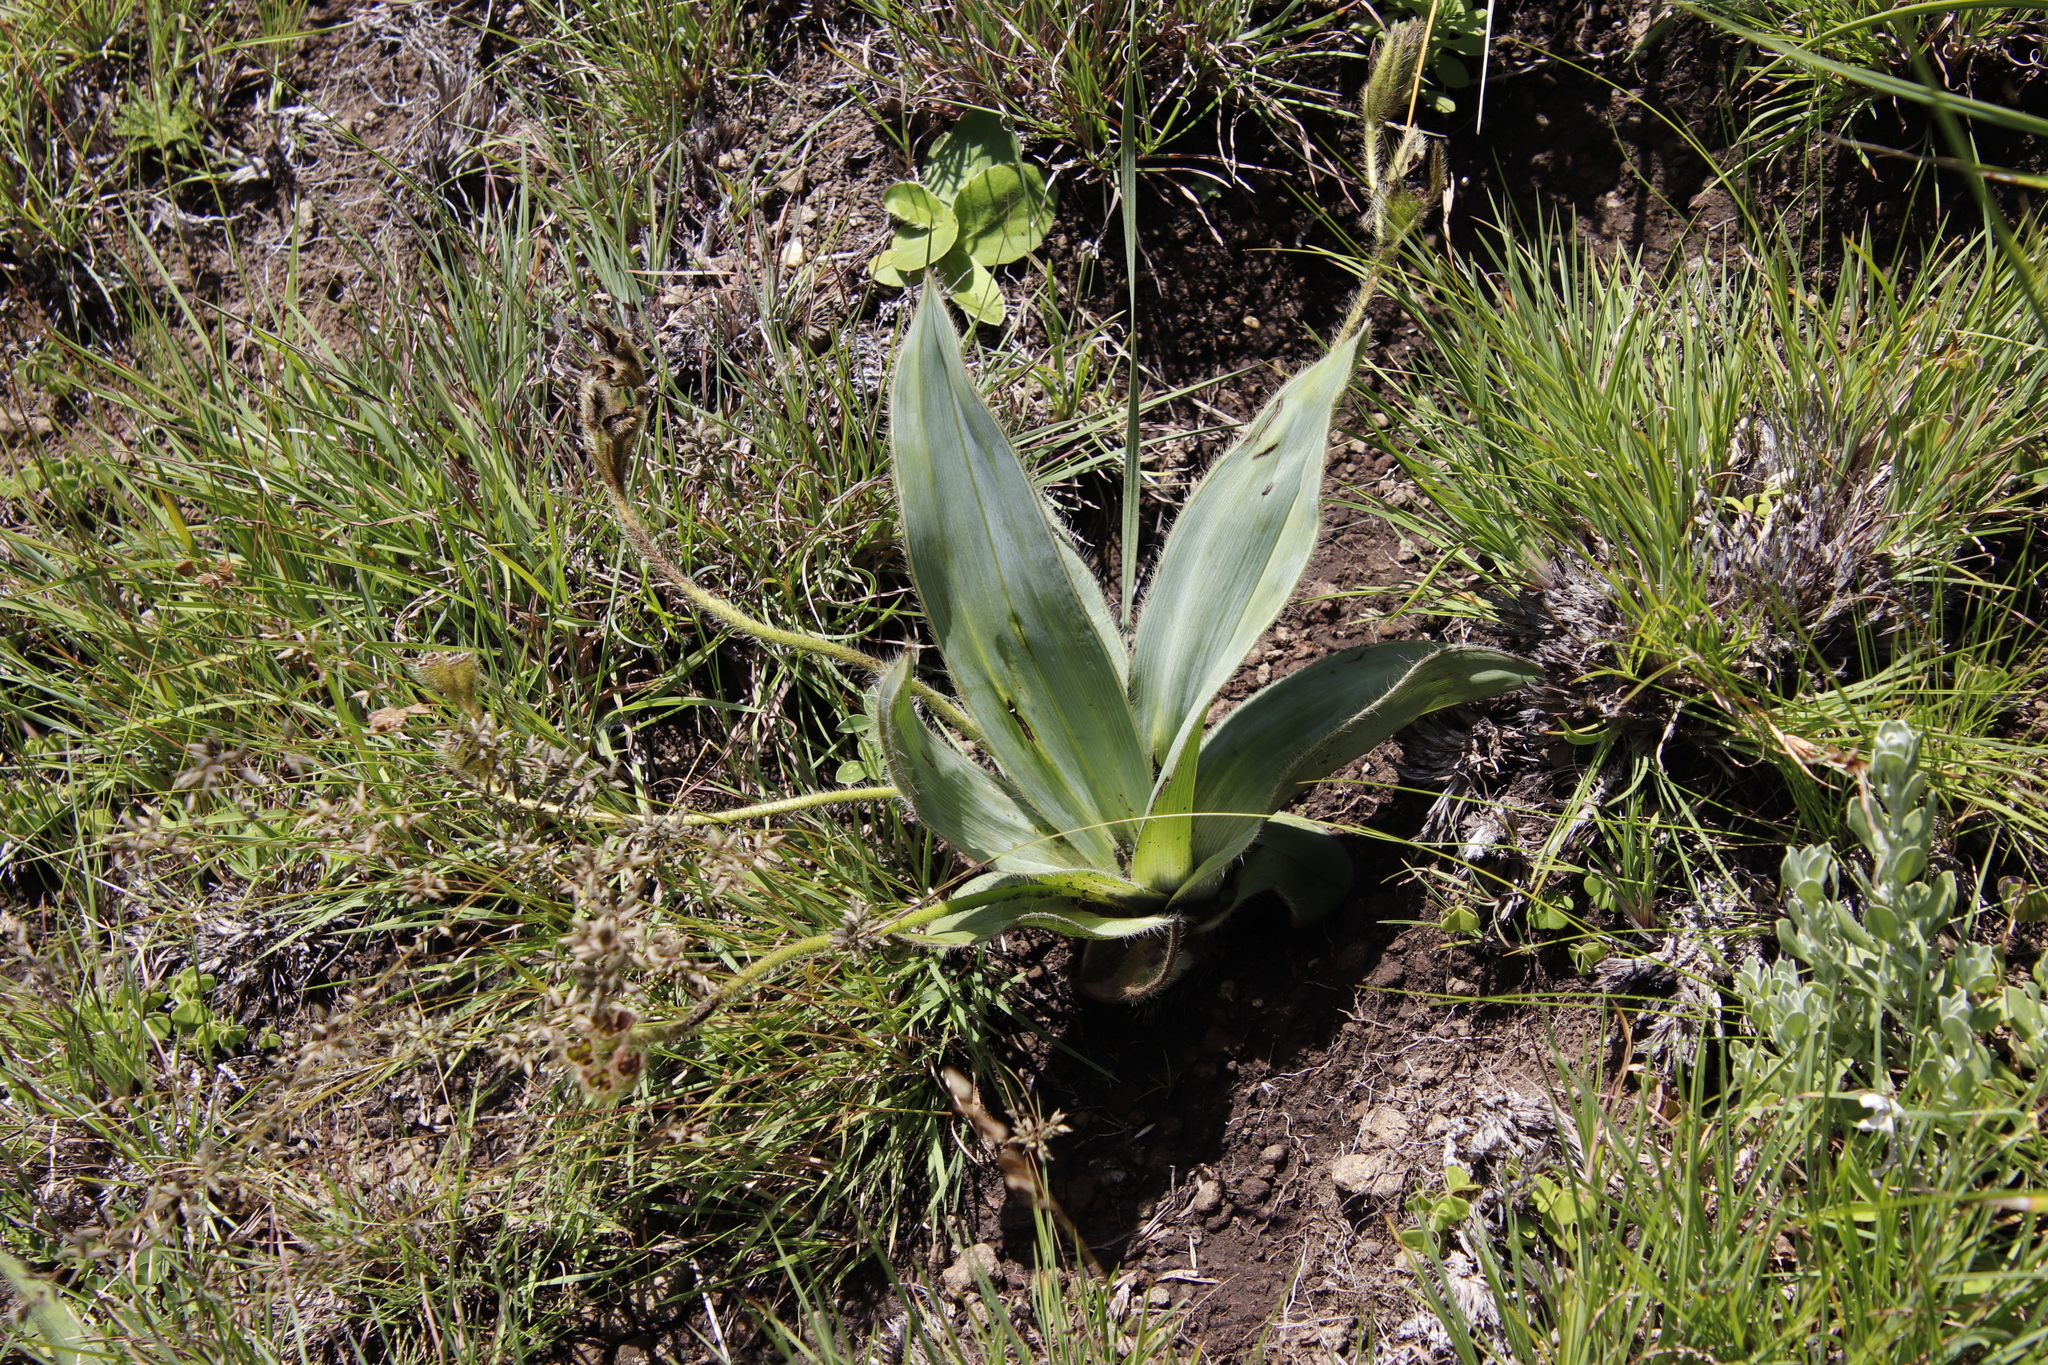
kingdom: Plantae
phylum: Tracheophyta
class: Liliopsida
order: Asparagales
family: Hypoxidaceae
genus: Hypoxis
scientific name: Hypoxis costata
